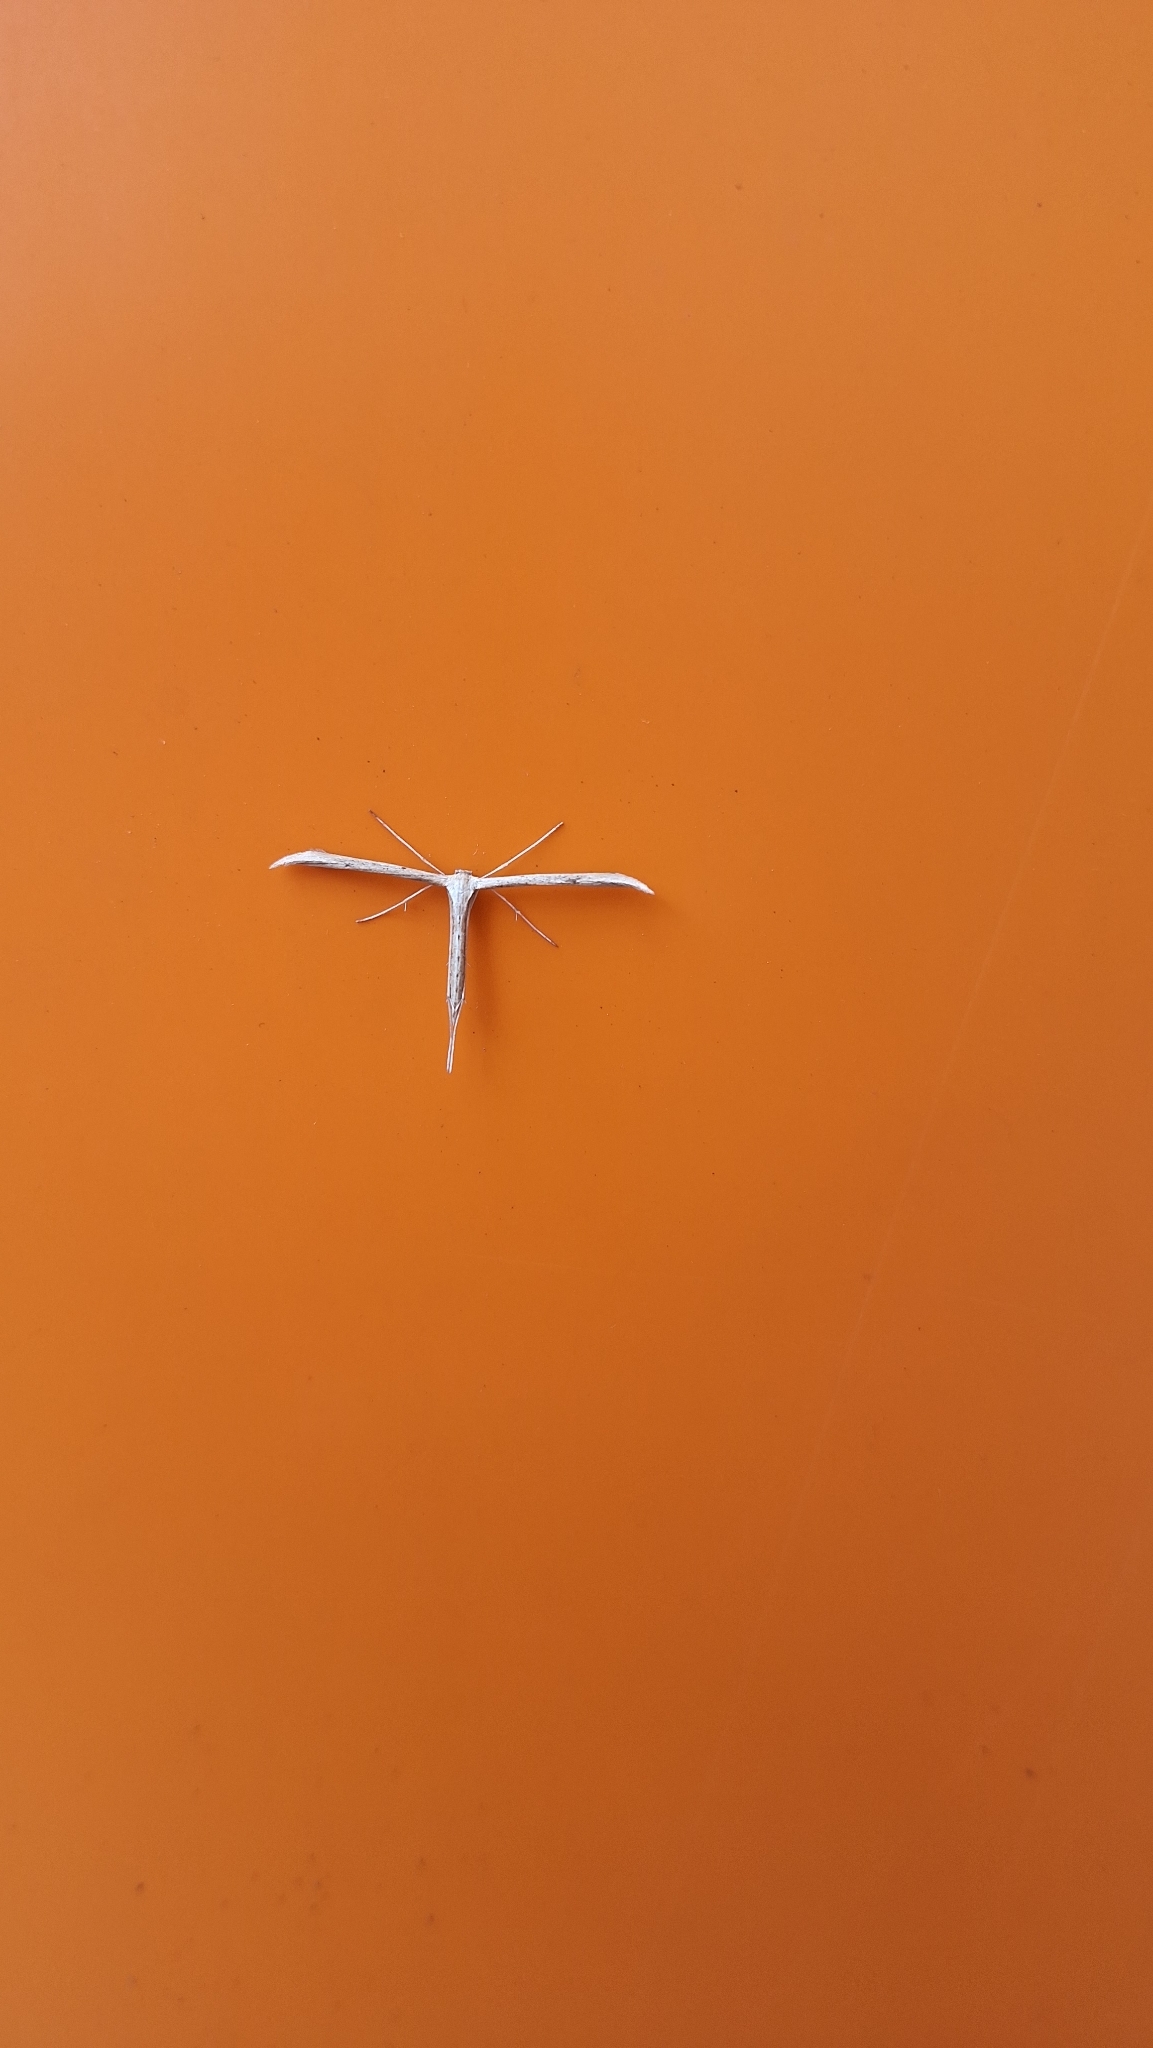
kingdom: Animalia
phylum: Arthropoda
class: Insecta
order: Lepidoptera
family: Pterophoridae
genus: Emmelina
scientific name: Emmelina monodactyla
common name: Common plume
